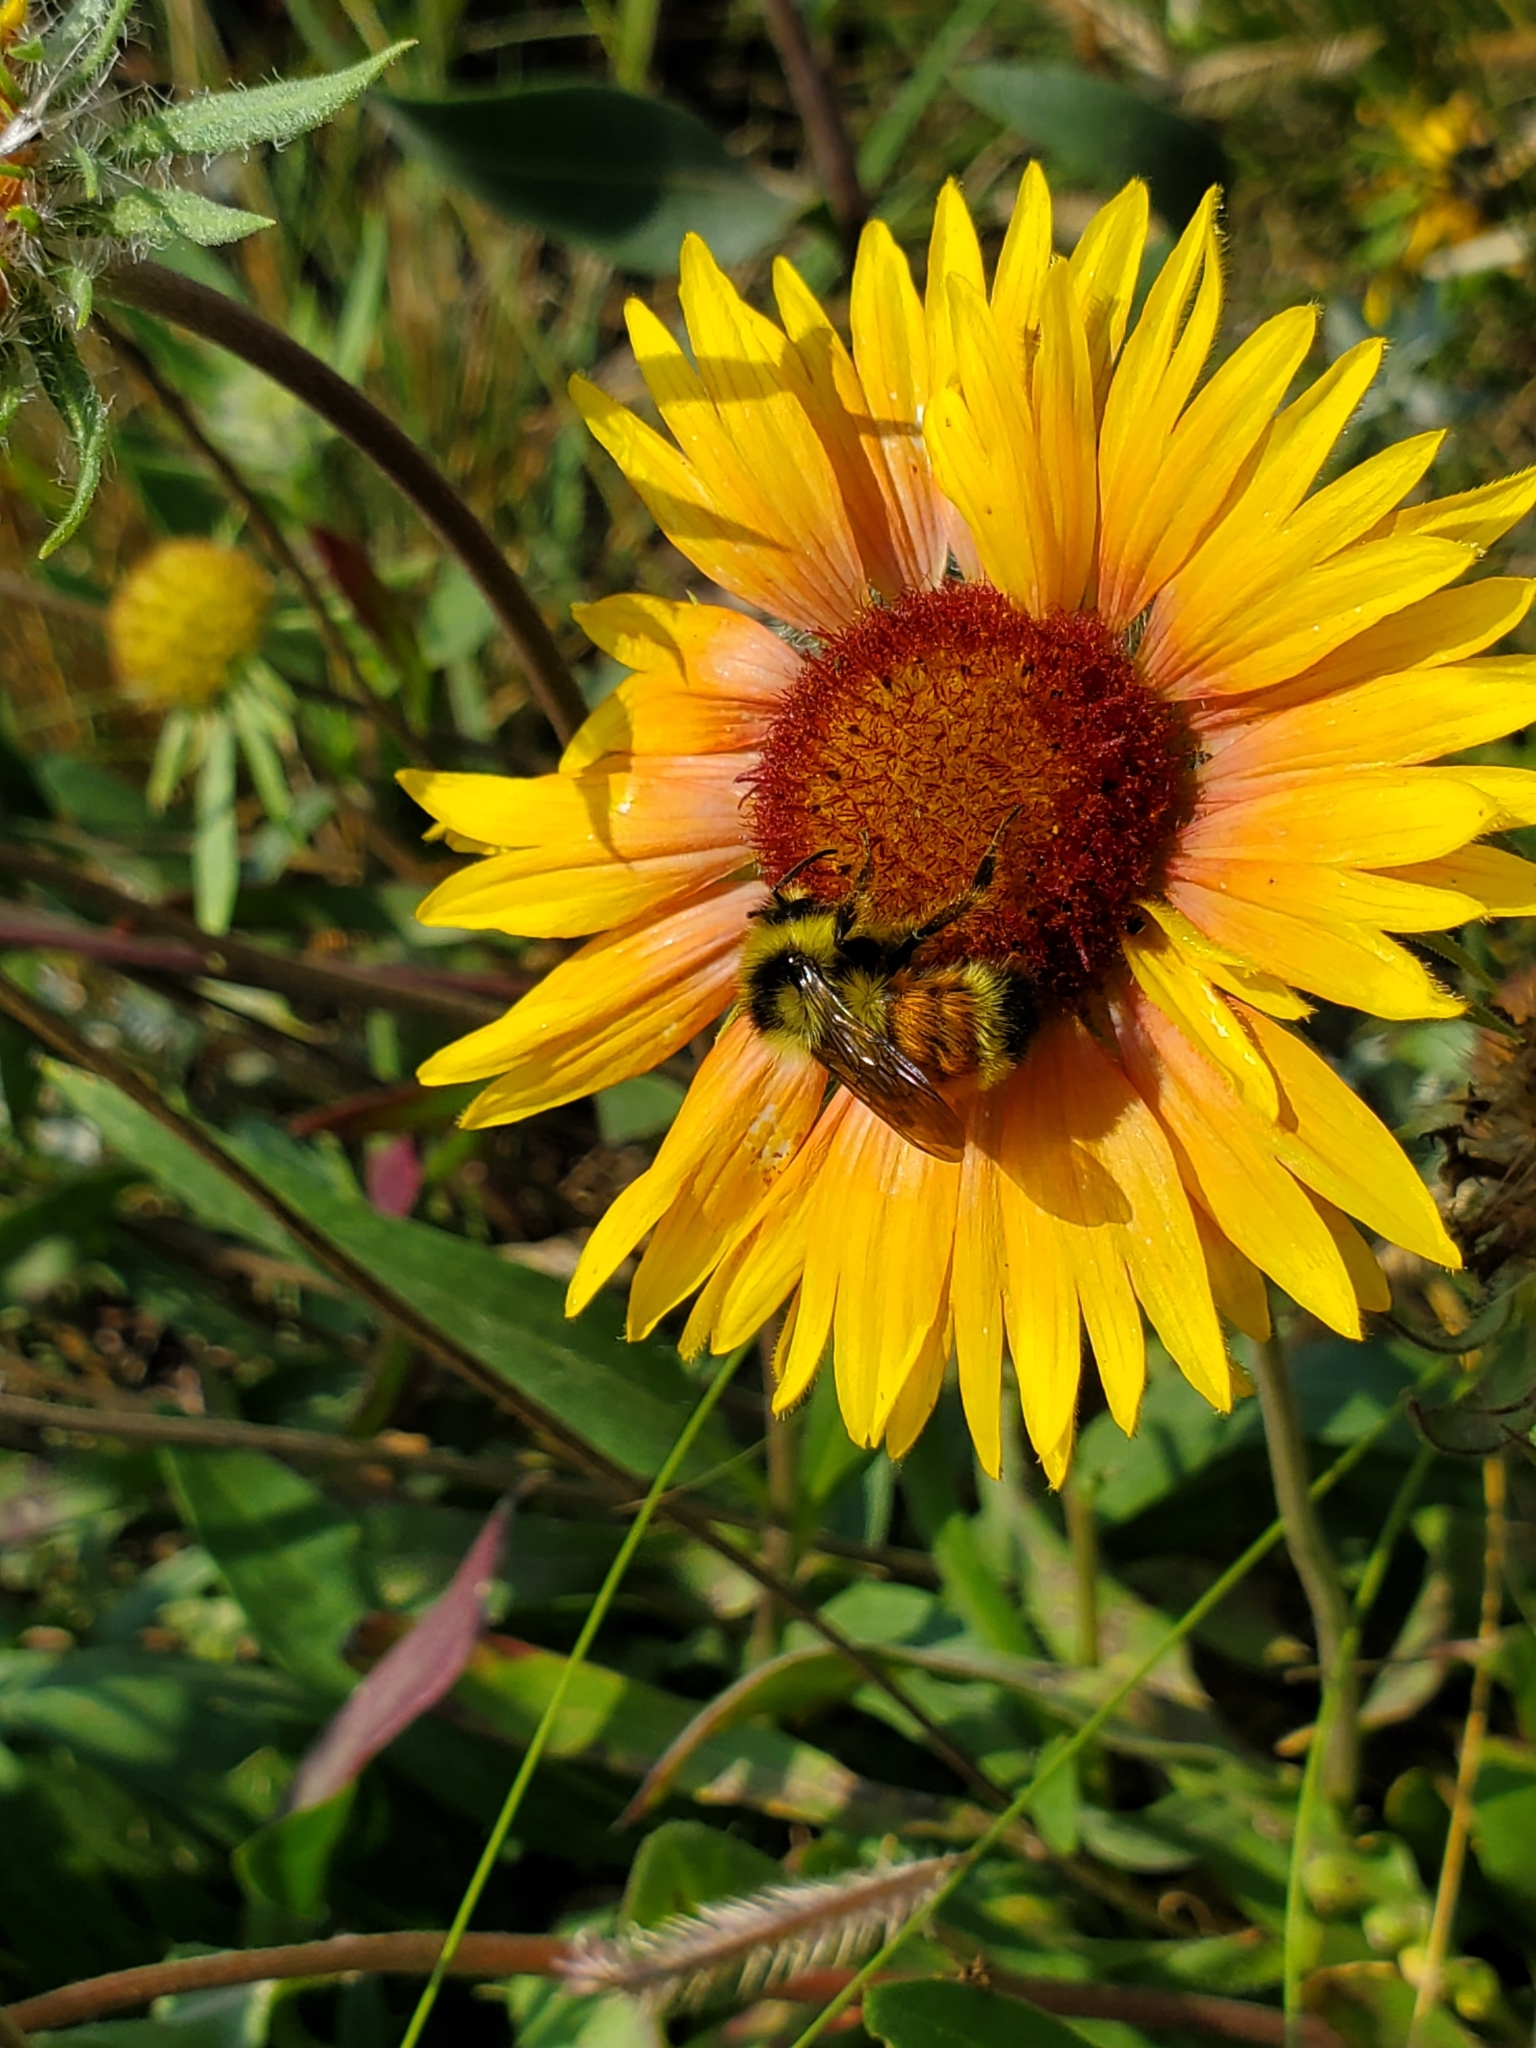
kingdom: Animalia
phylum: Arthropoda
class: Insecta
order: Hymenoptera
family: Apidae
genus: Bombus
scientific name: Bombus ternarius
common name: Tri-colored bumble bee
